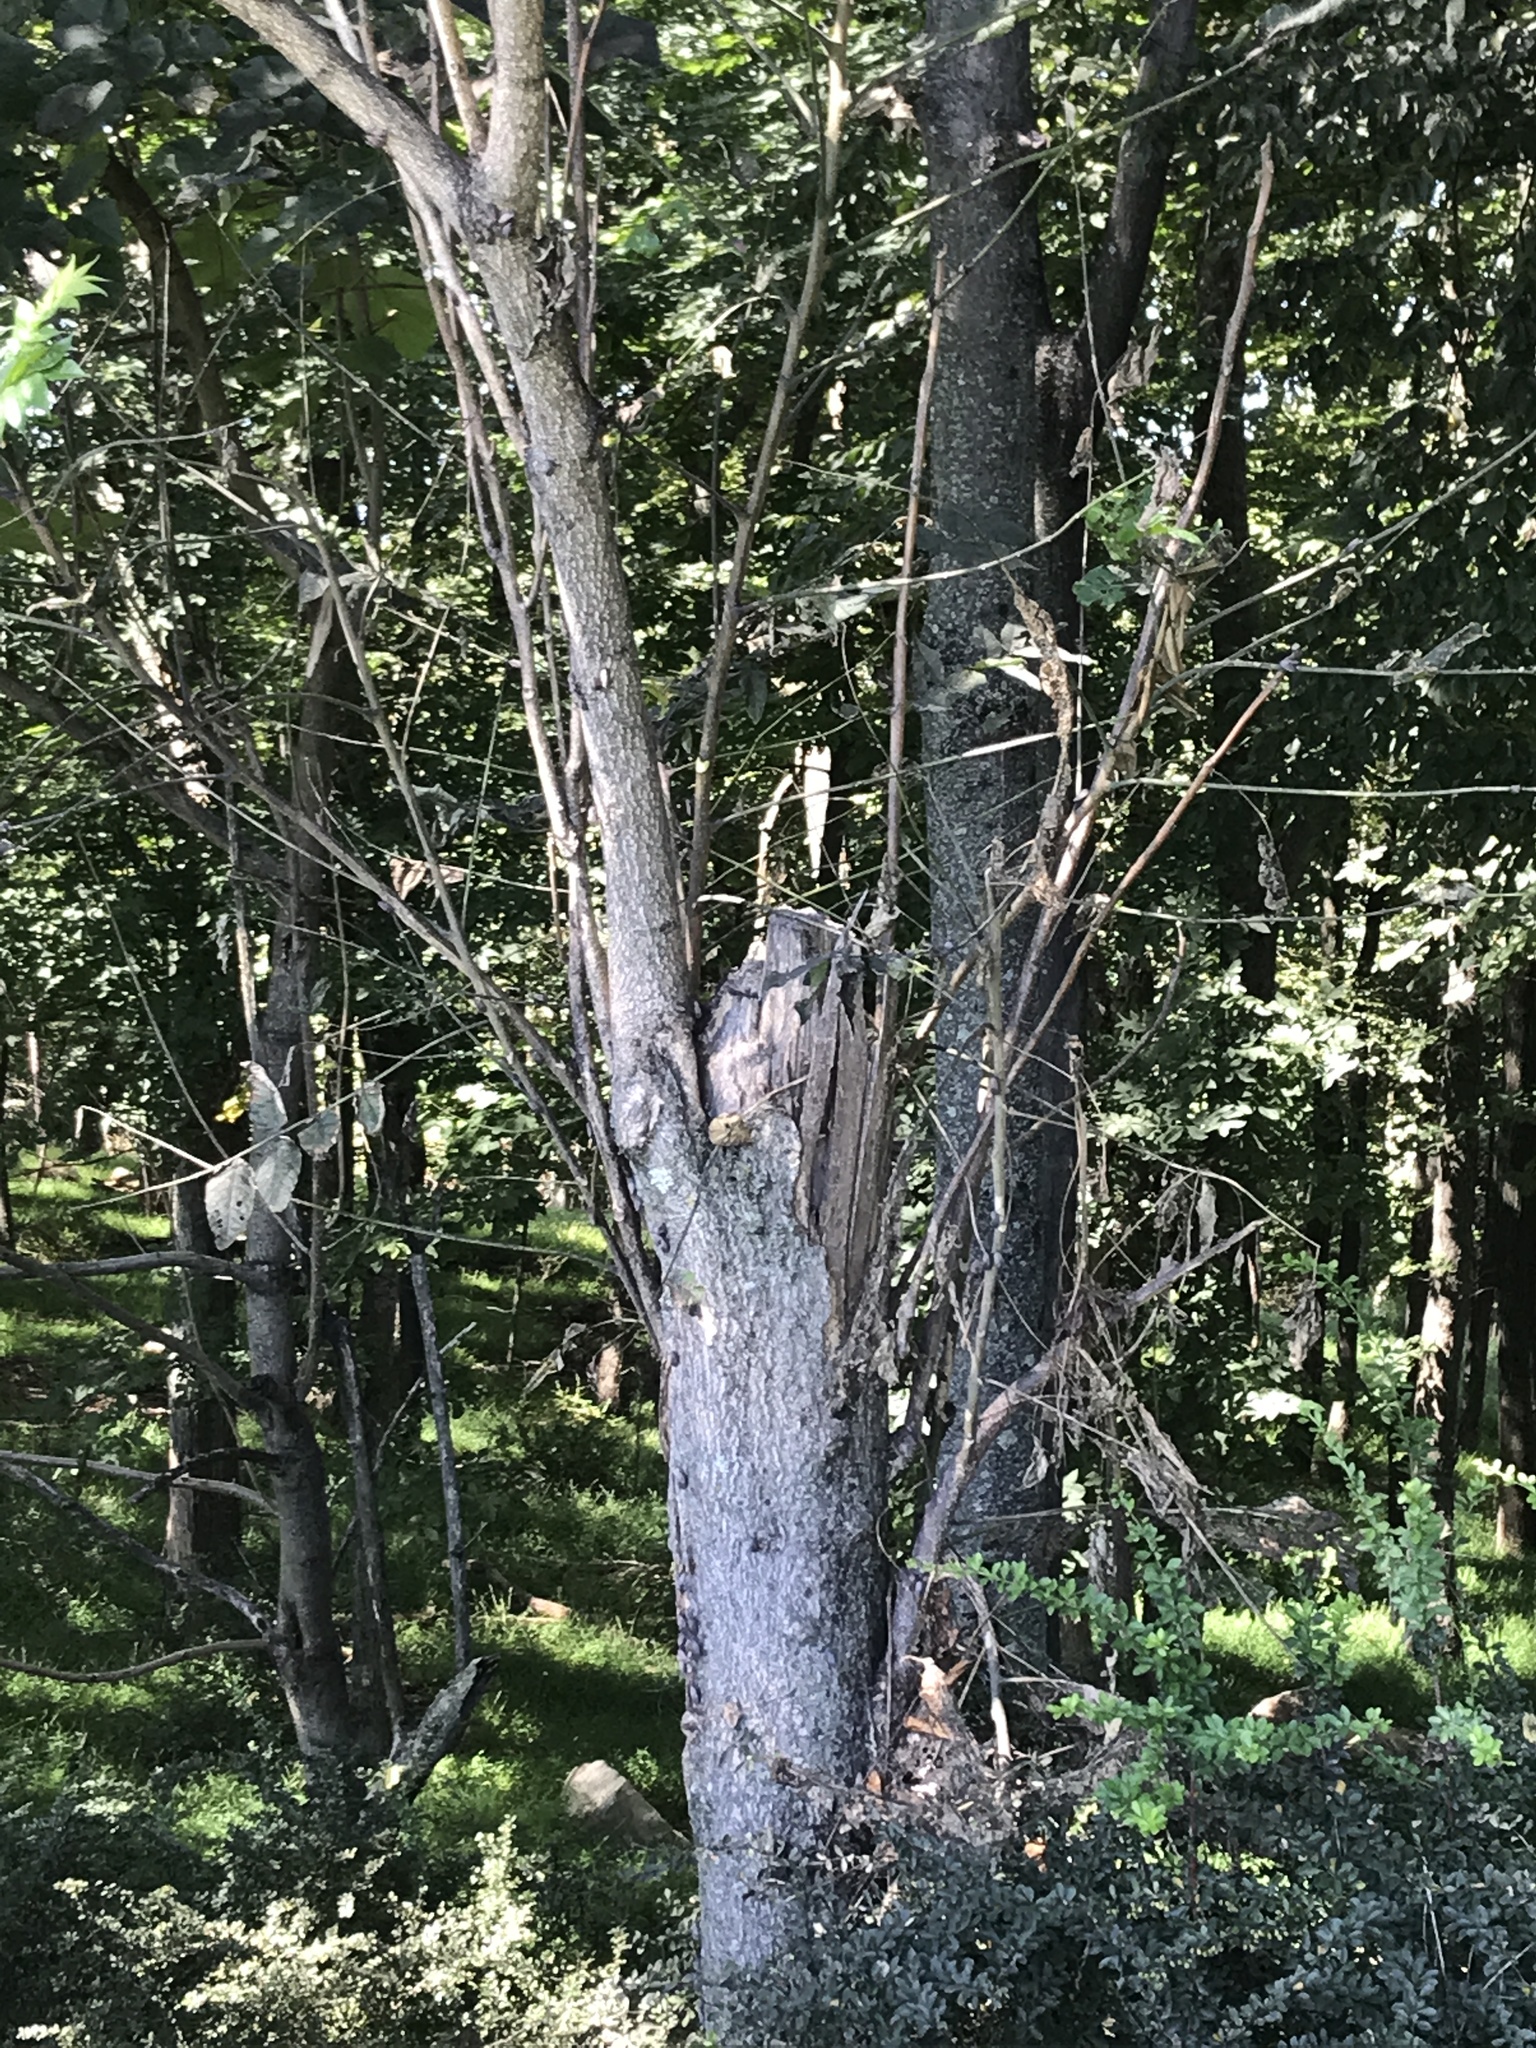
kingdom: Plantae
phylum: Tracheophyta
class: Magnoliopsida
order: Sapindales
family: Simaroubaceae
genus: Ailanthus
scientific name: Ailanthus altissima
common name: Tree-of-heaven
